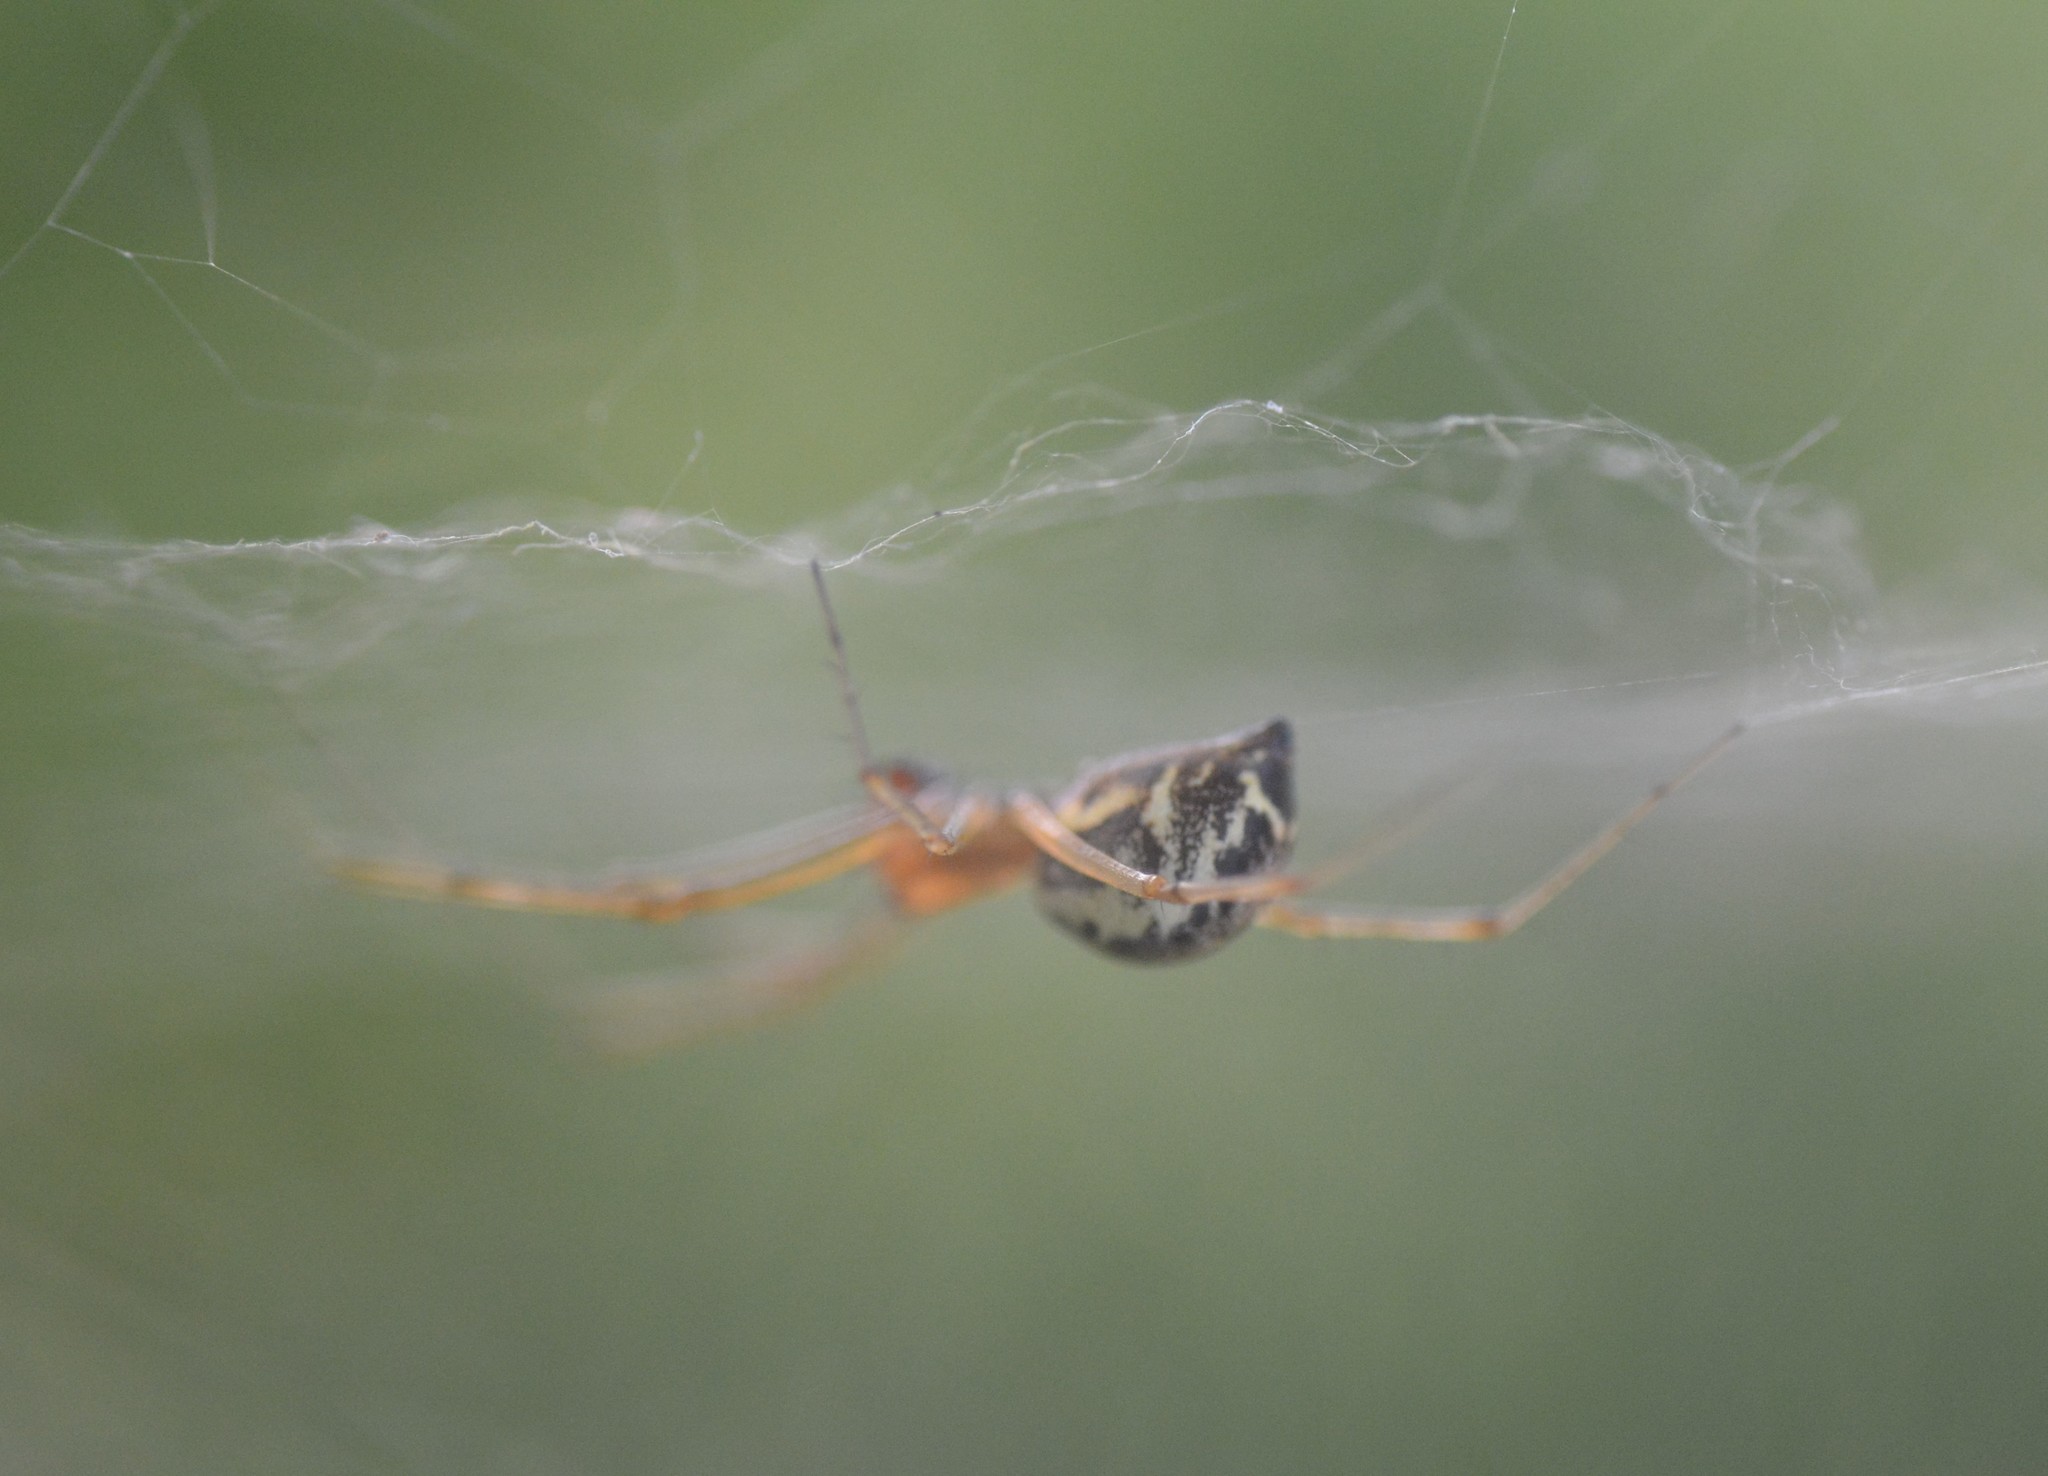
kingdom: Animalia
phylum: Arthropoda
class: Arachnida
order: Araneae
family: Linyphiidae
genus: Linyphia
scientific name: Linyphia triangularis
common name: Money spider
